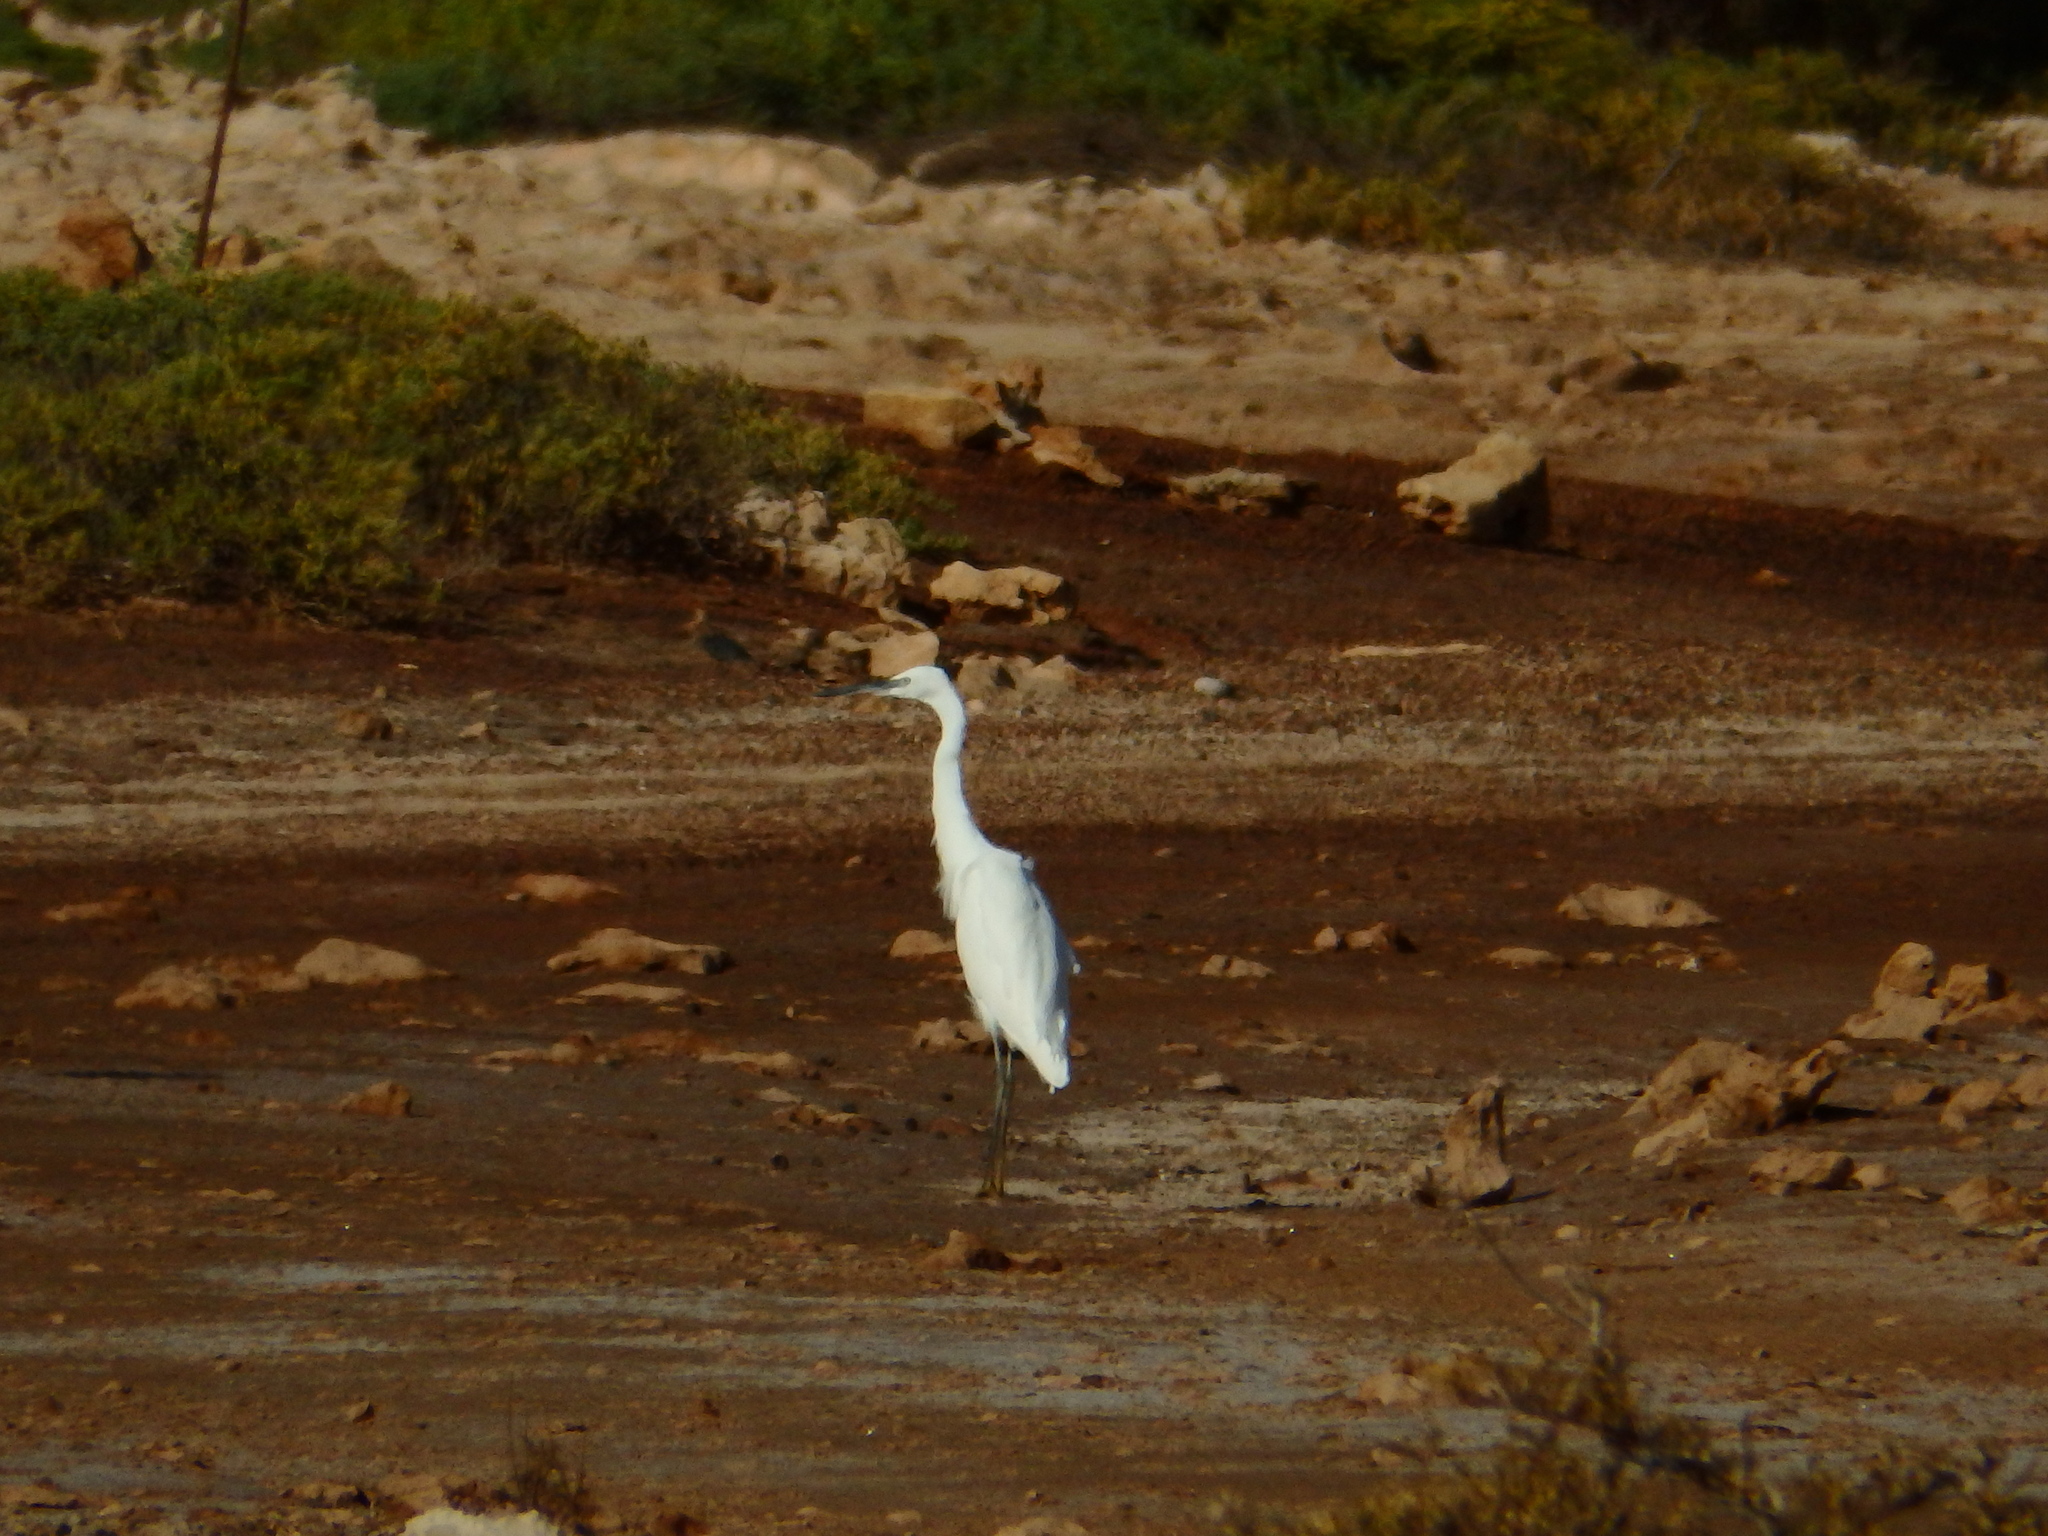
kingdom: Animalia
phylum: Chordata
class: Aves
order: Pelecaniformes
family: Ardeidae
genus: Egretta
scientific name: Egretta garzetta
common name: Little egret
